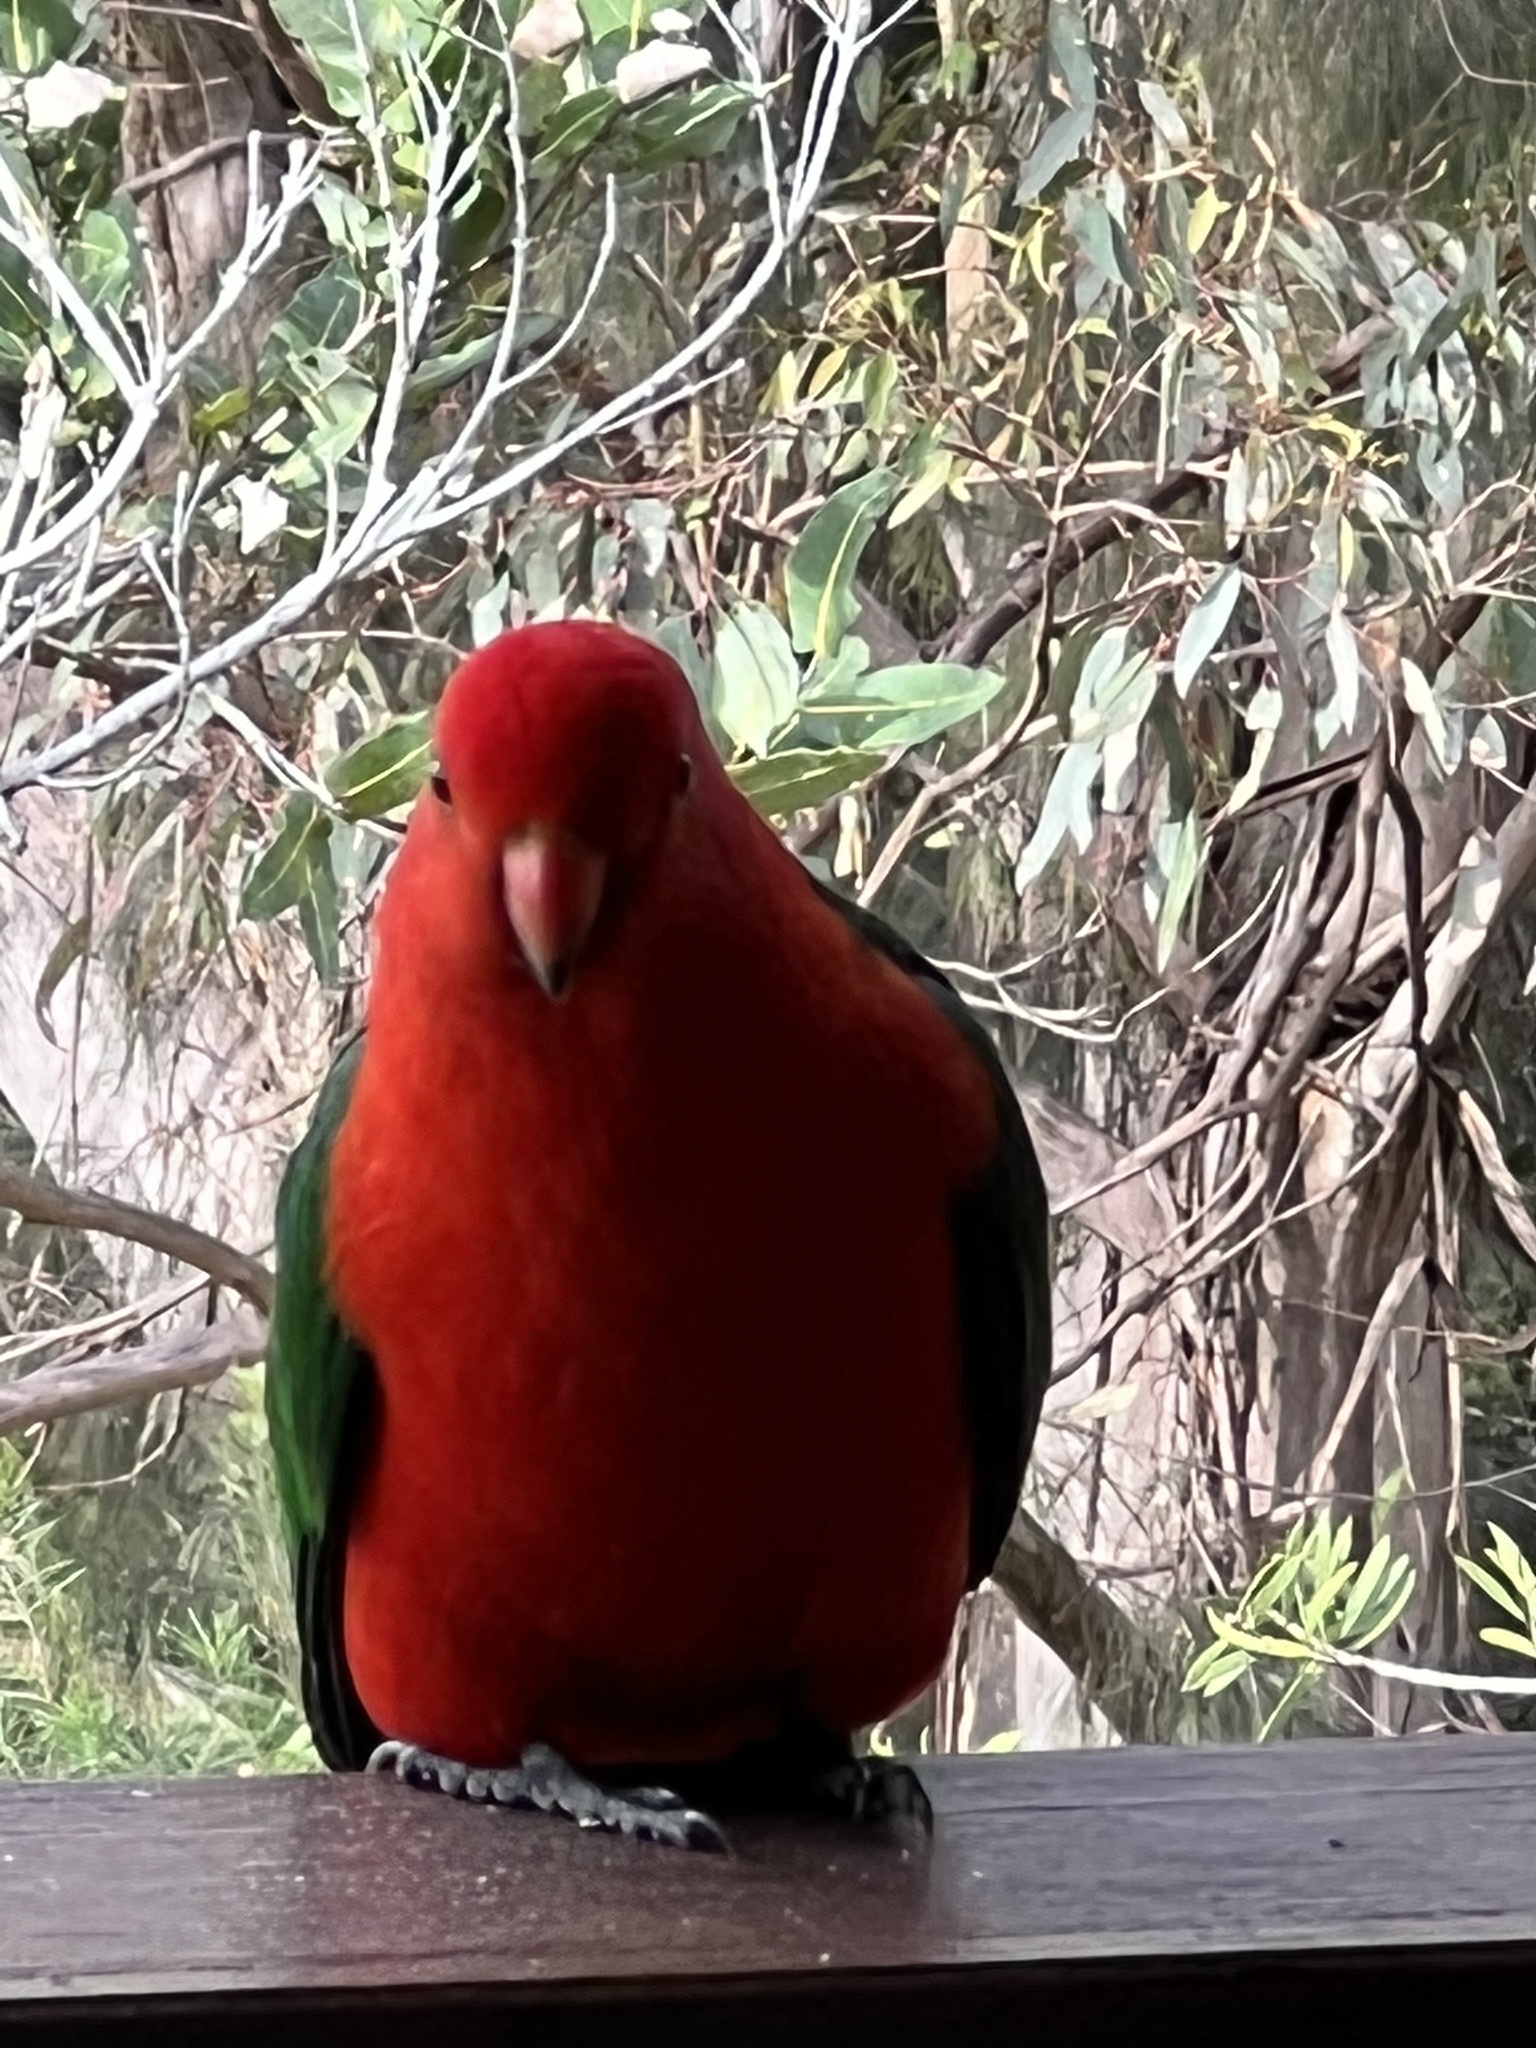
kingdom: Animalia
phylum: Chordata
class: Aves
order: Psittaciformes
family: Psittacidae
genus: Alisterus
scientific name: Alisterus scapularis
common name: Australian king parrot
